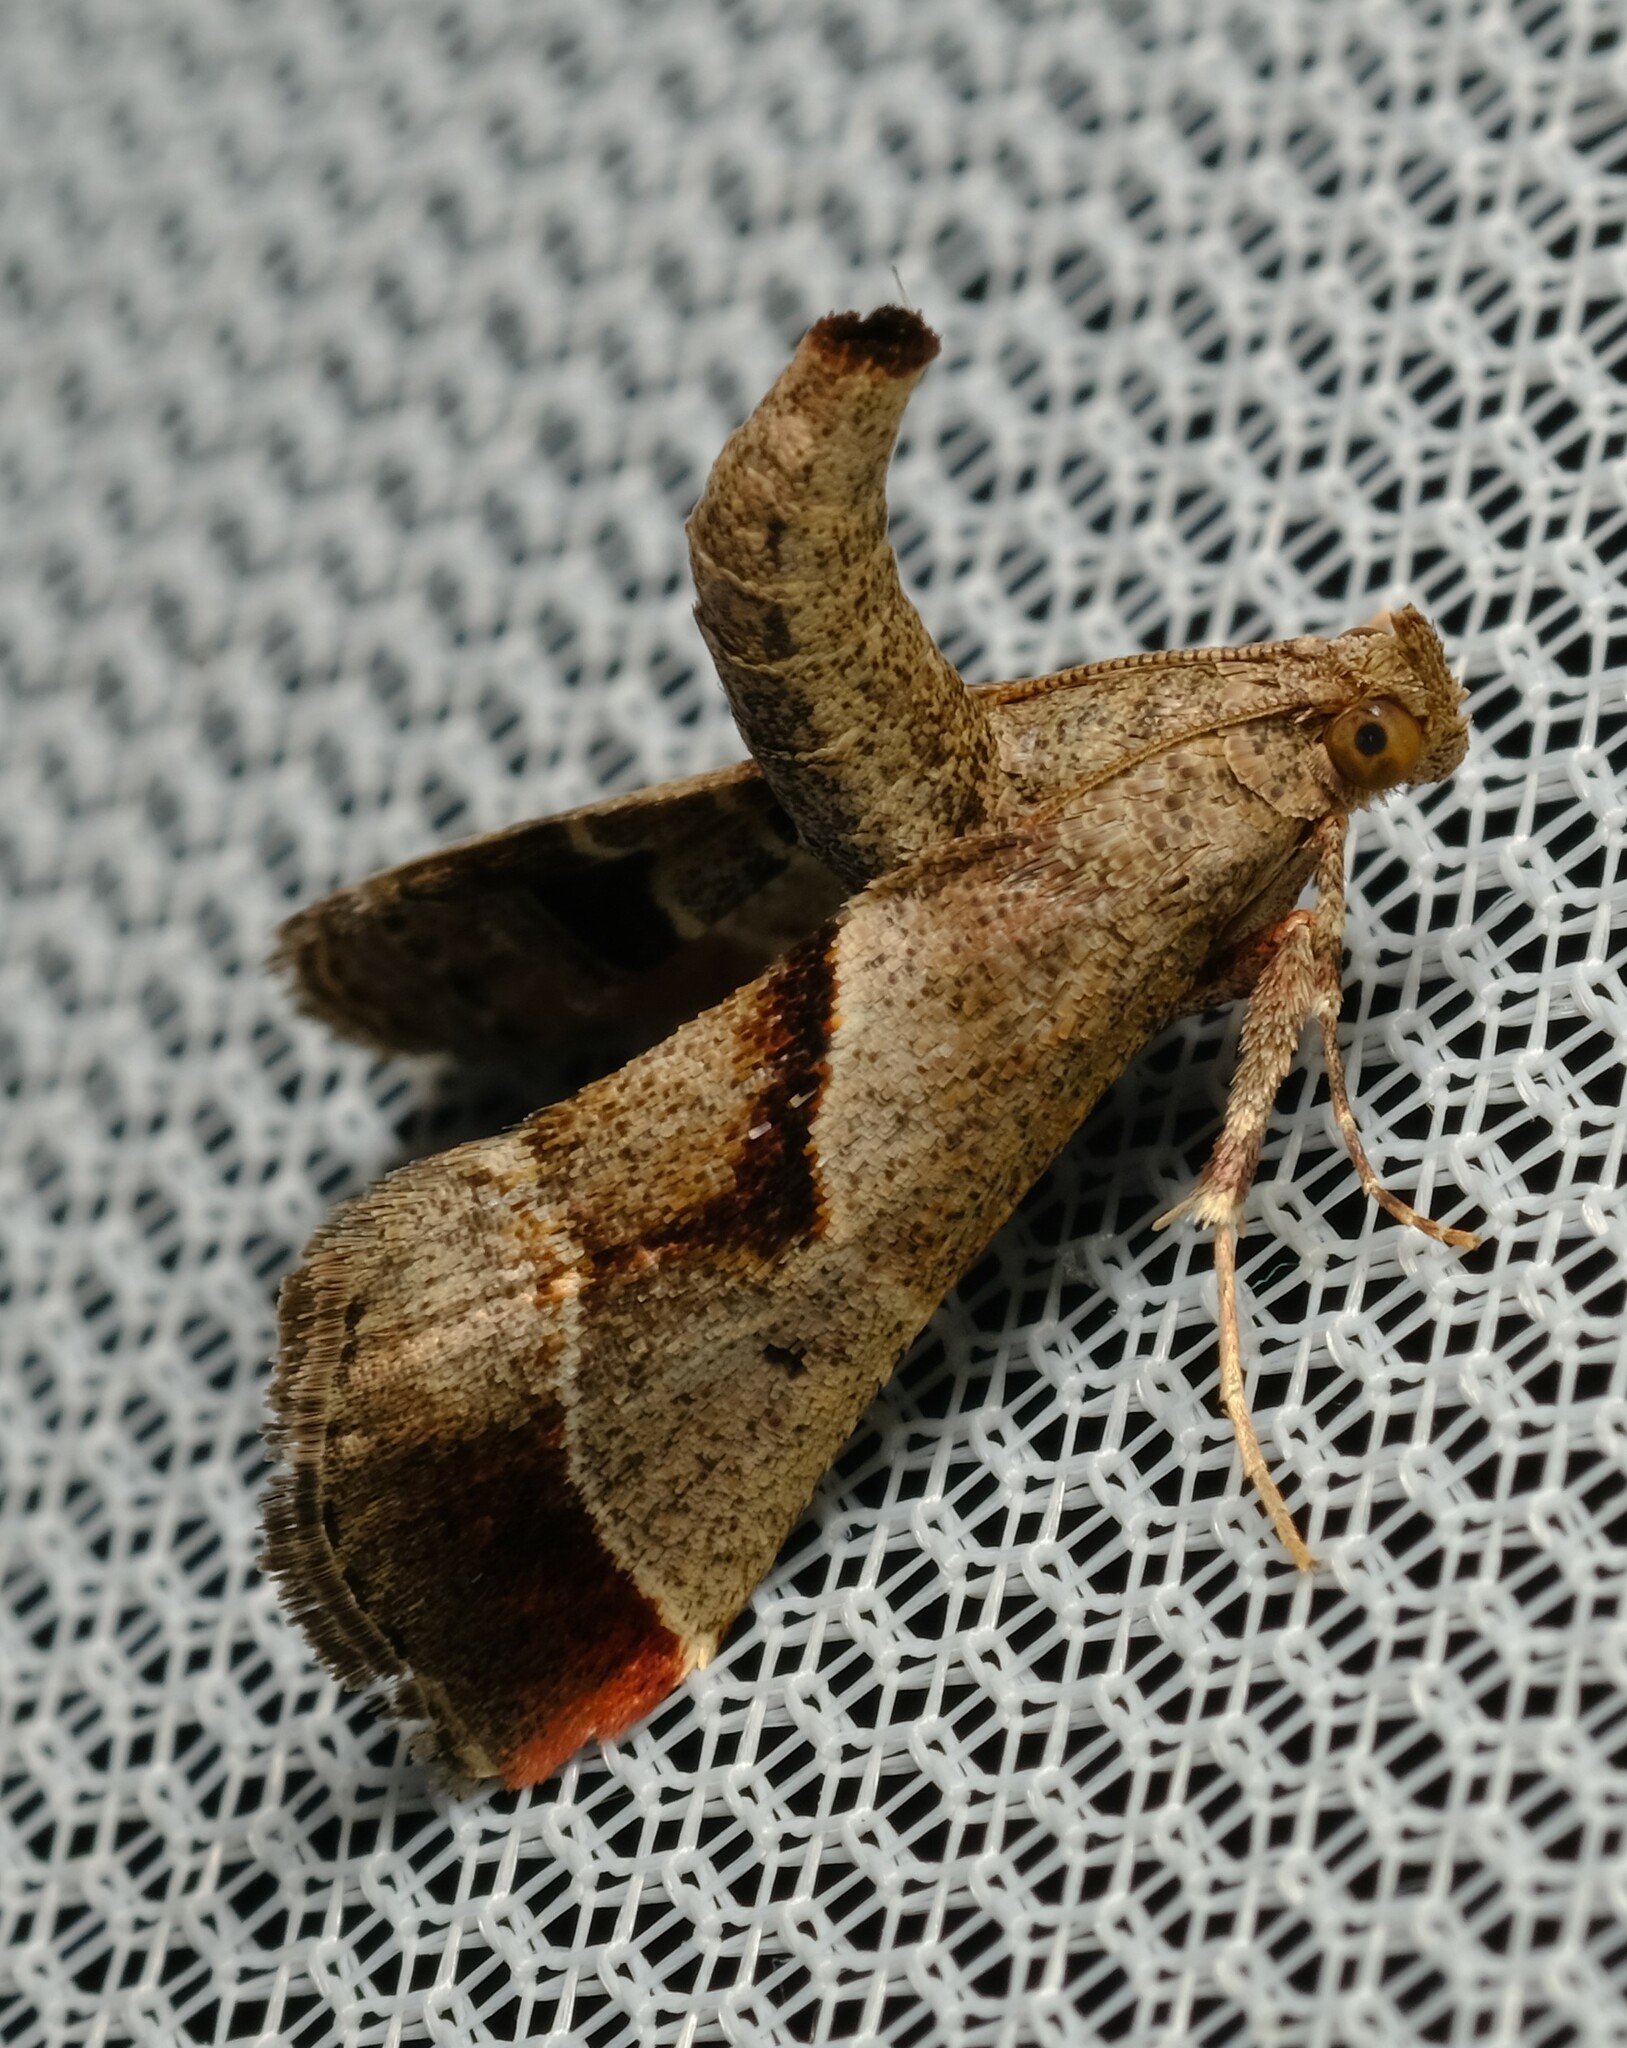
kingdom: Animalia
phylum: Arthropoda
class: Insecta
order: Lepidoptera
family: Pyralidae
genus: Gauna
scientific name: Gauna aegusalis
